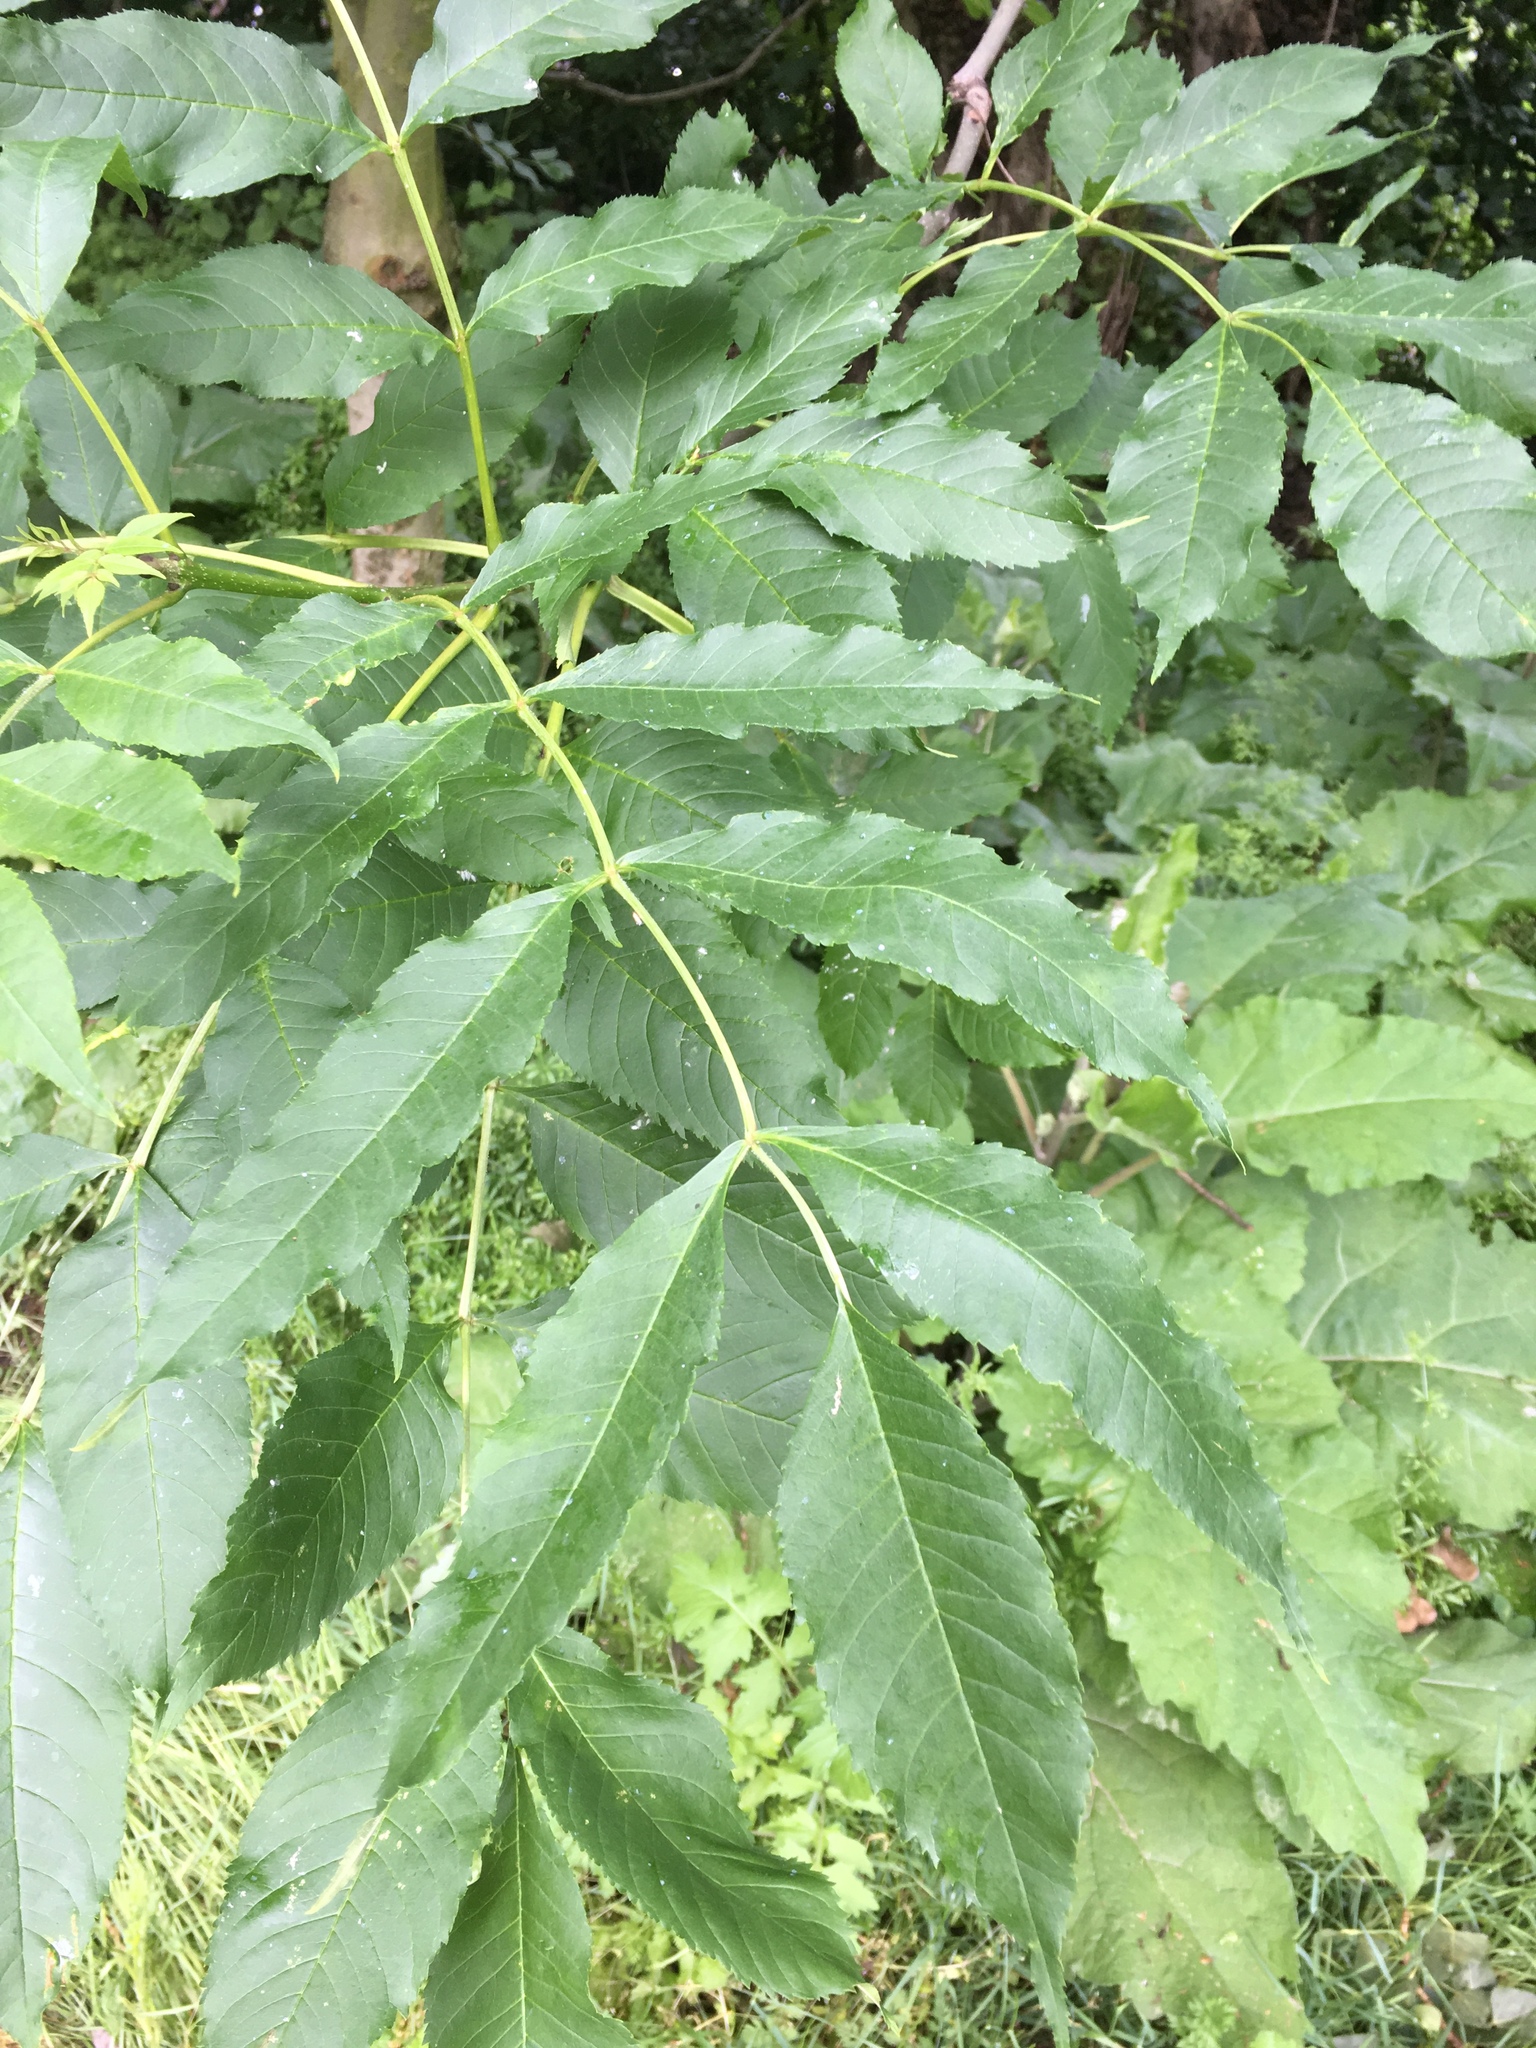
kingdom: Plantae
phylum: Tracheophyta
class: Magnoliopsida
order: Lamiales
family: Oleaceae
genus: Fraxinus
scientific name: Fraxinus excelsior
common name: European ash
